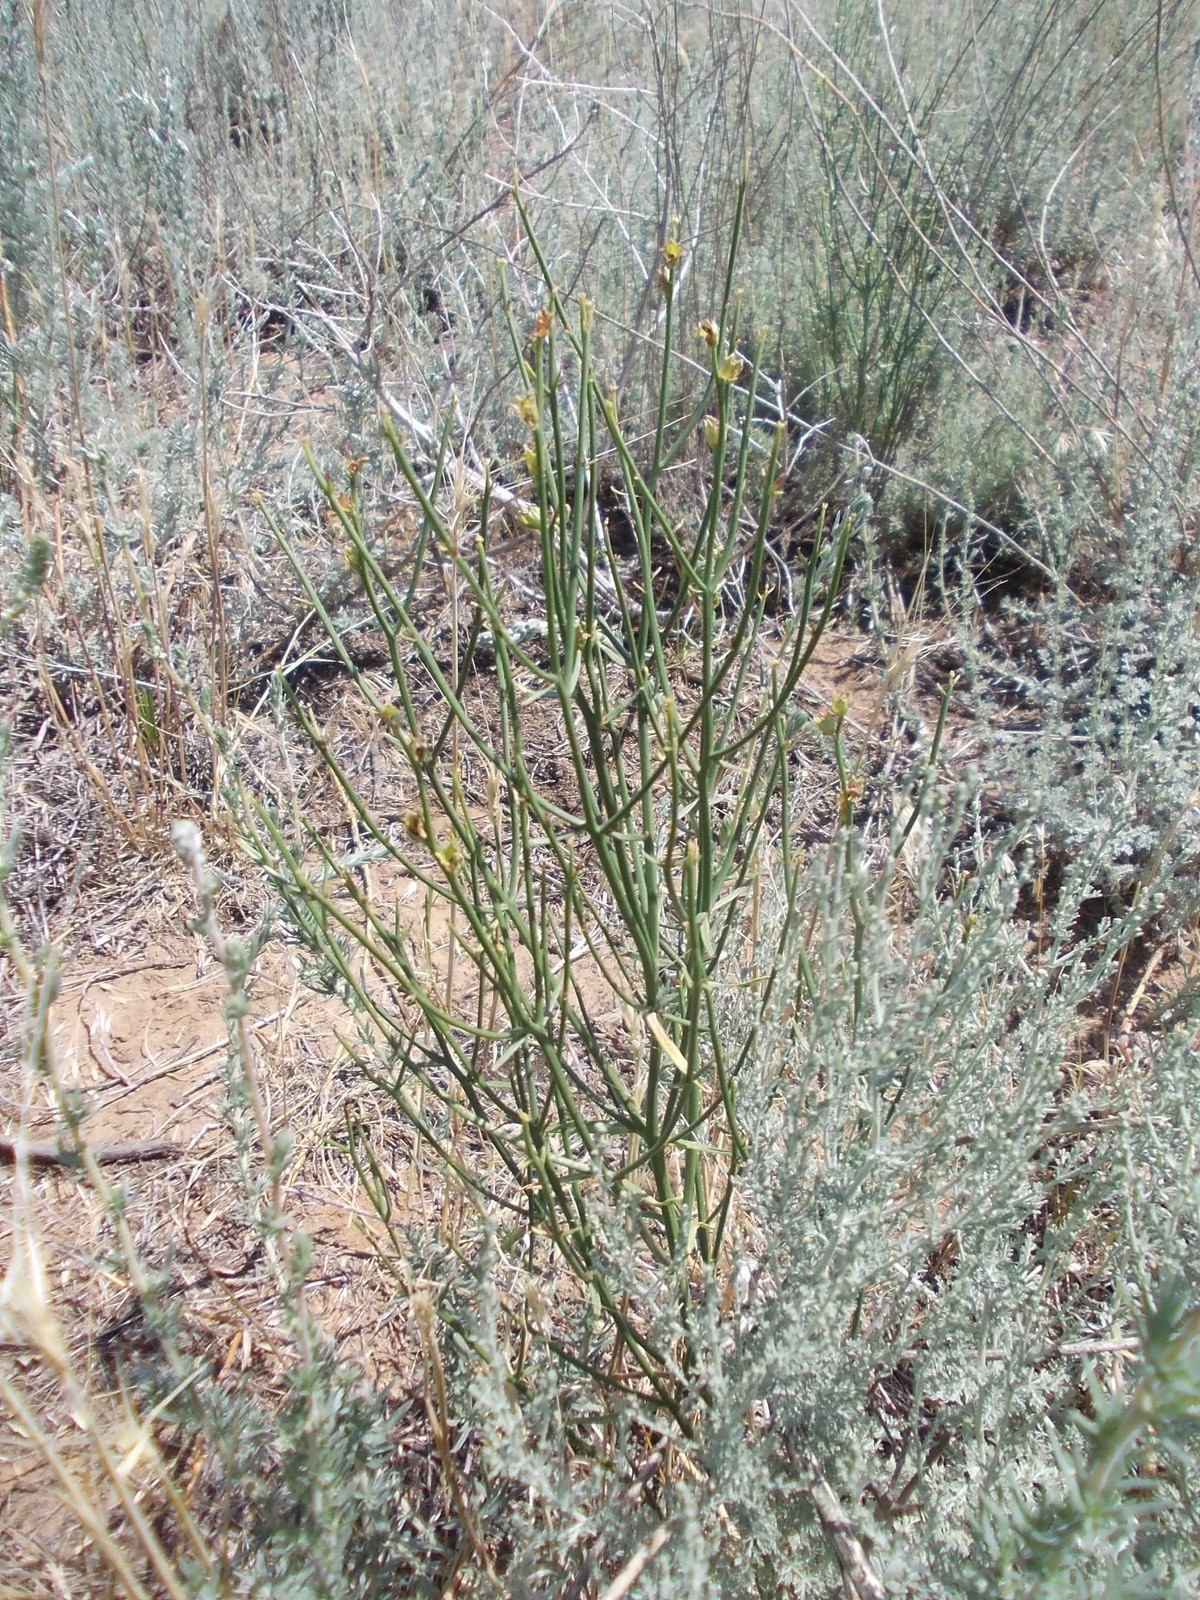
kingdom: Plantae
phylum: Tracheophyta
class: Magnoliopsida
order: Lamiales
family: Mazaceae
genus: Dodartia
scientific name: Dodartia orientalis
